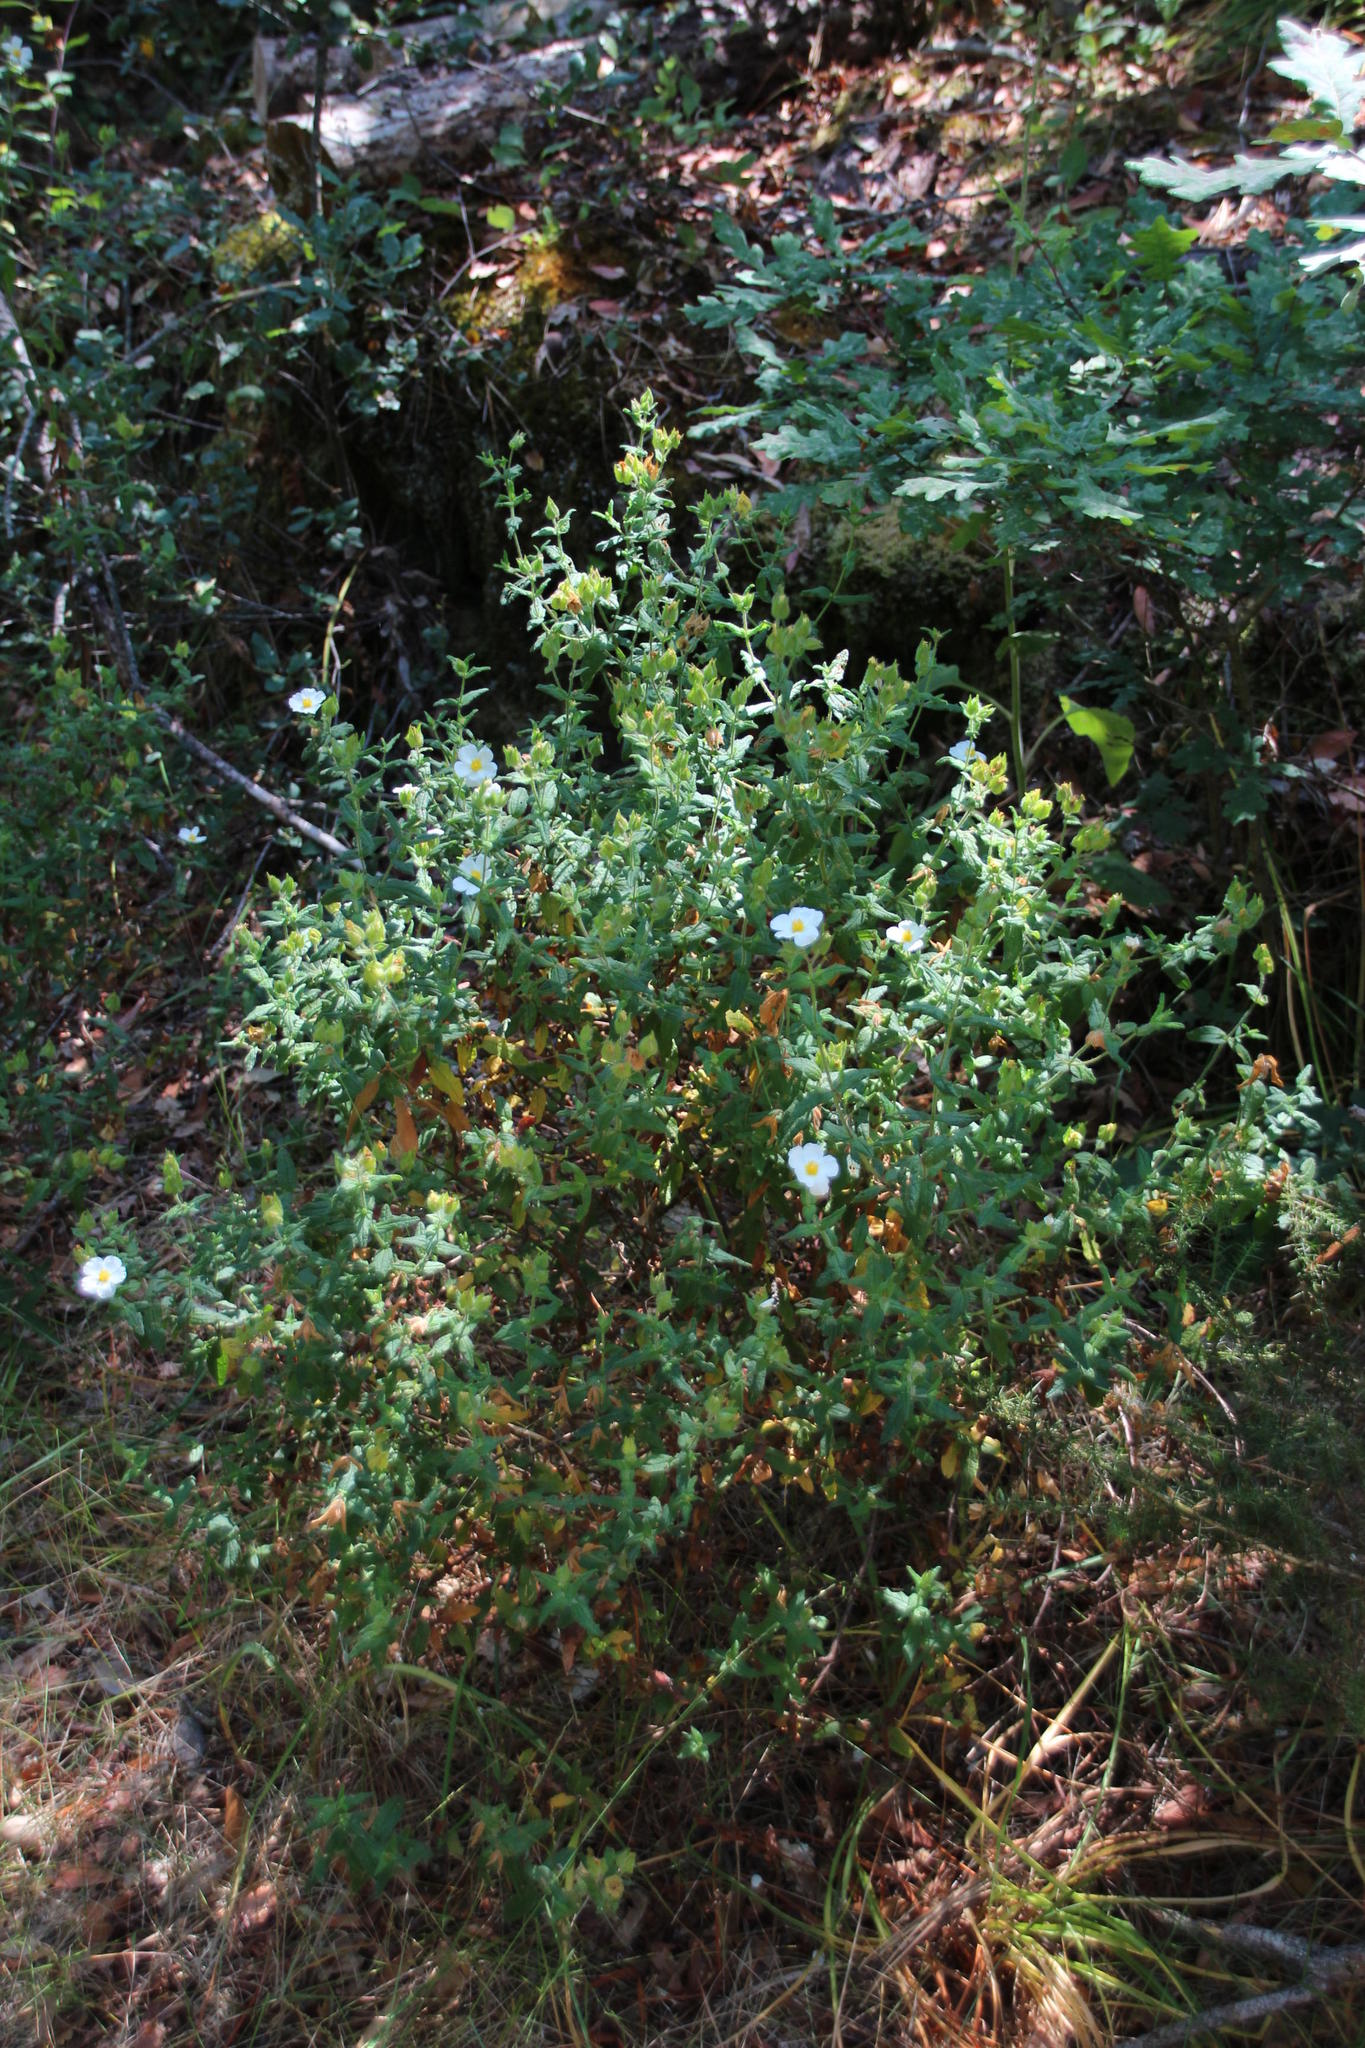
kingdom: Plantae
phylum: Tracheophyta
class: Magnoliopsida
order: Malvales
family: Cistaceae
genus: Cistus
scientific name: Cistus inflatus
